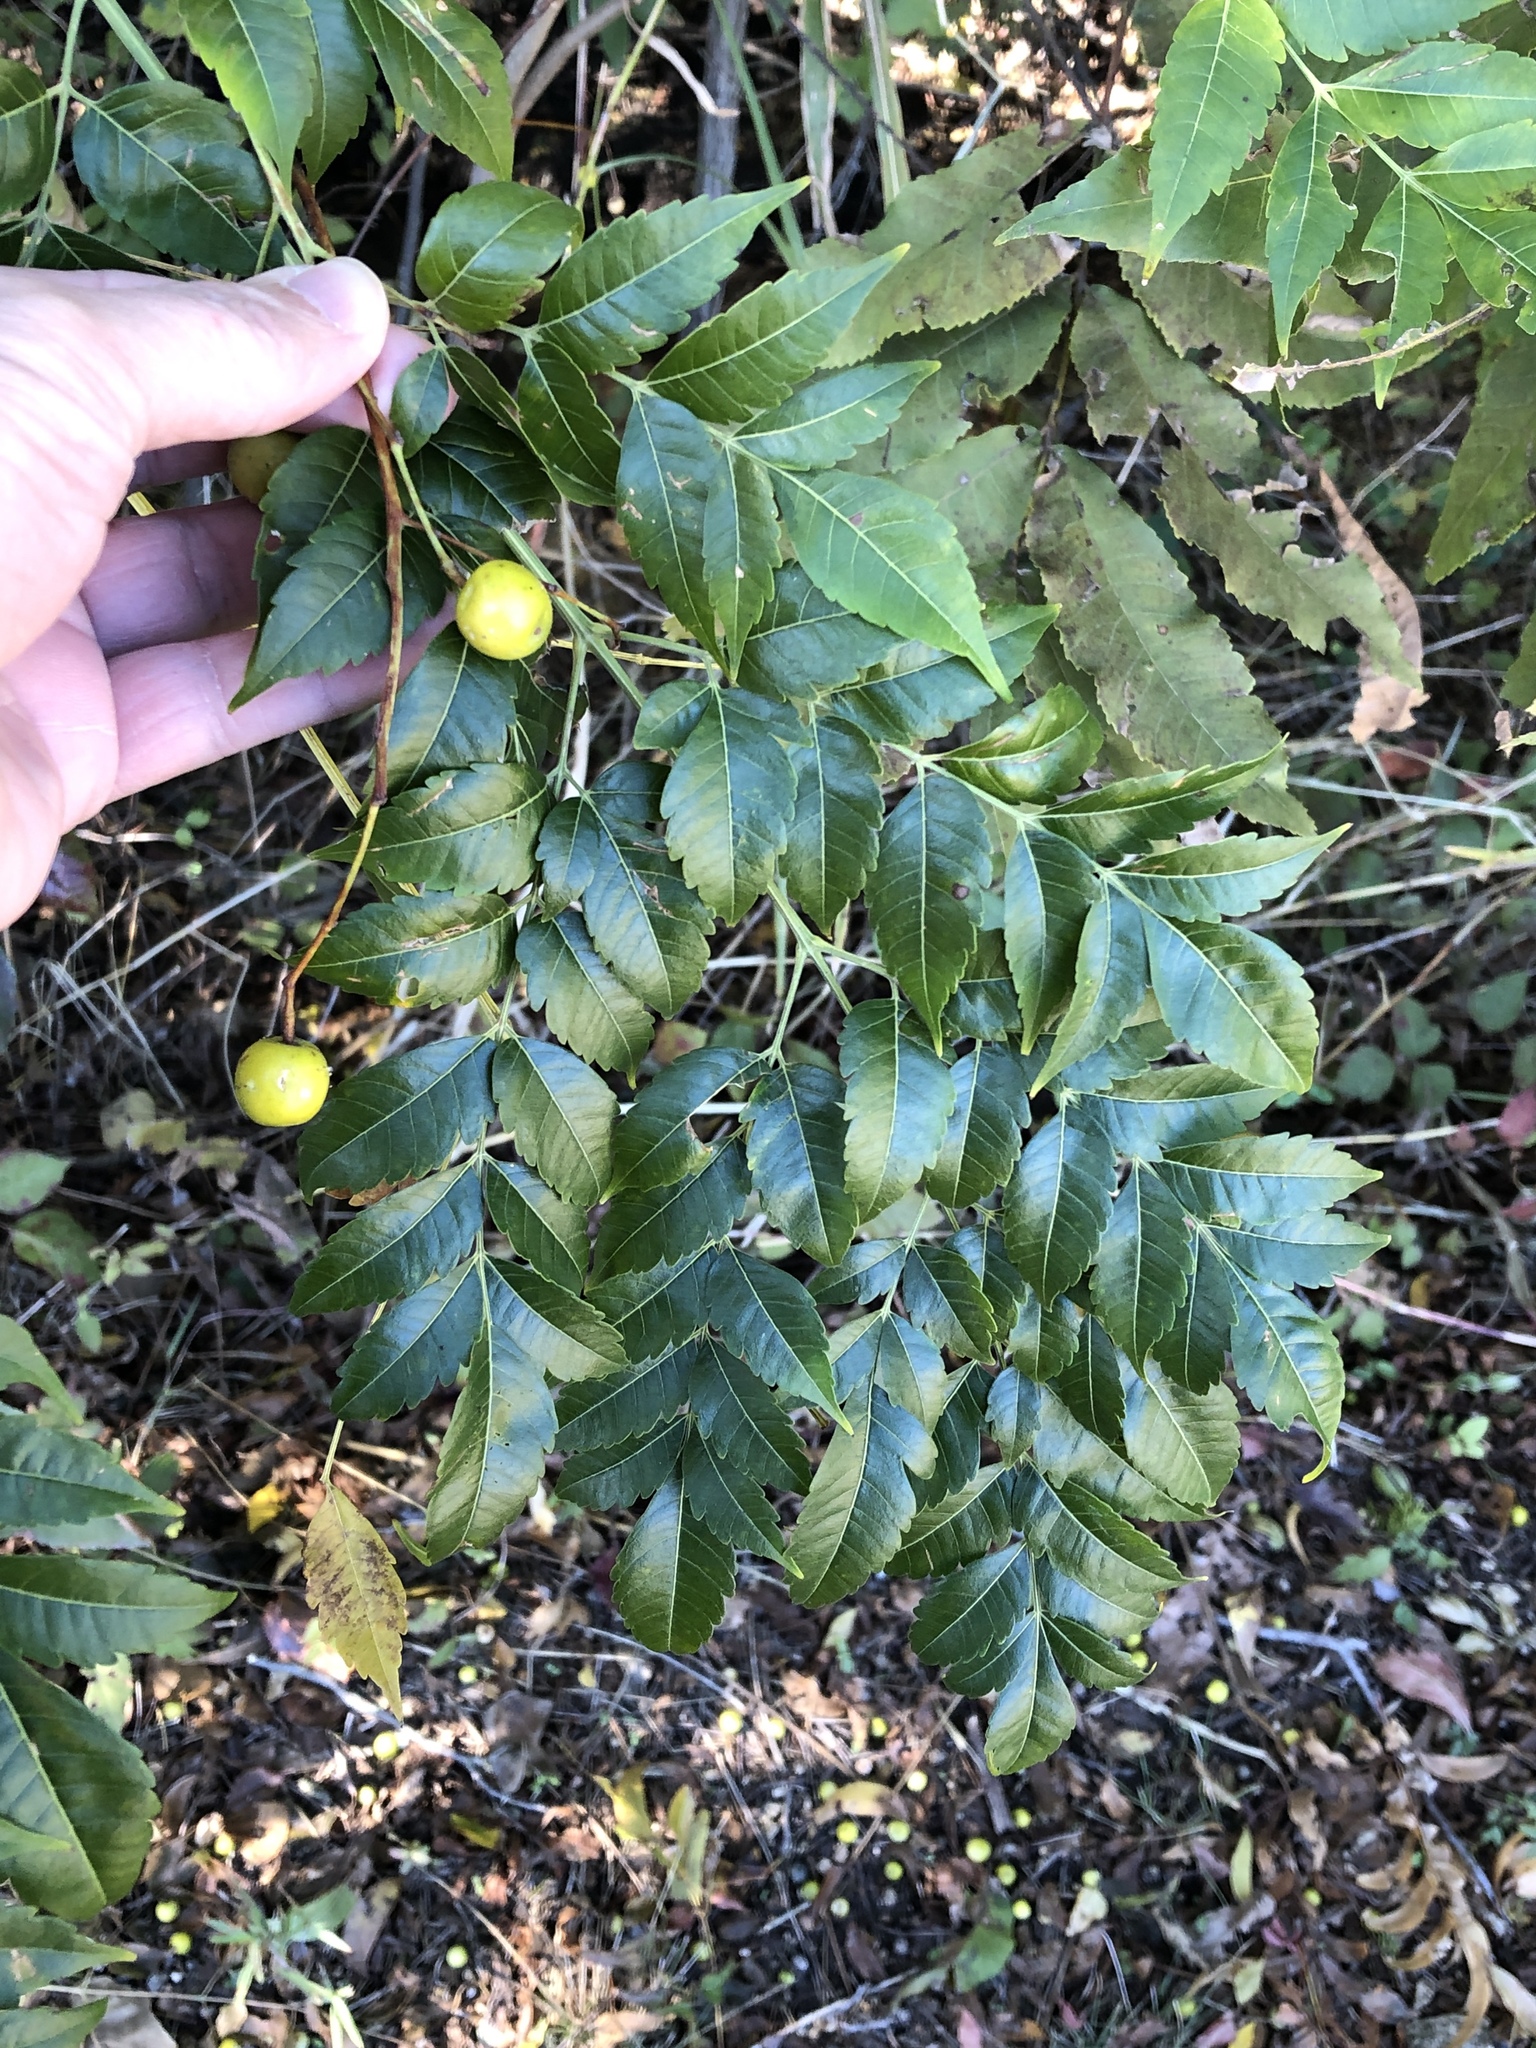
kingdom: Plantae
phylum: Tracheophyta
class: Magnoliopsida
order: Sapindales
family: Meliaceae
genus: Melia
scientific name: Melia azedarach
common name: Chinaberrytree
